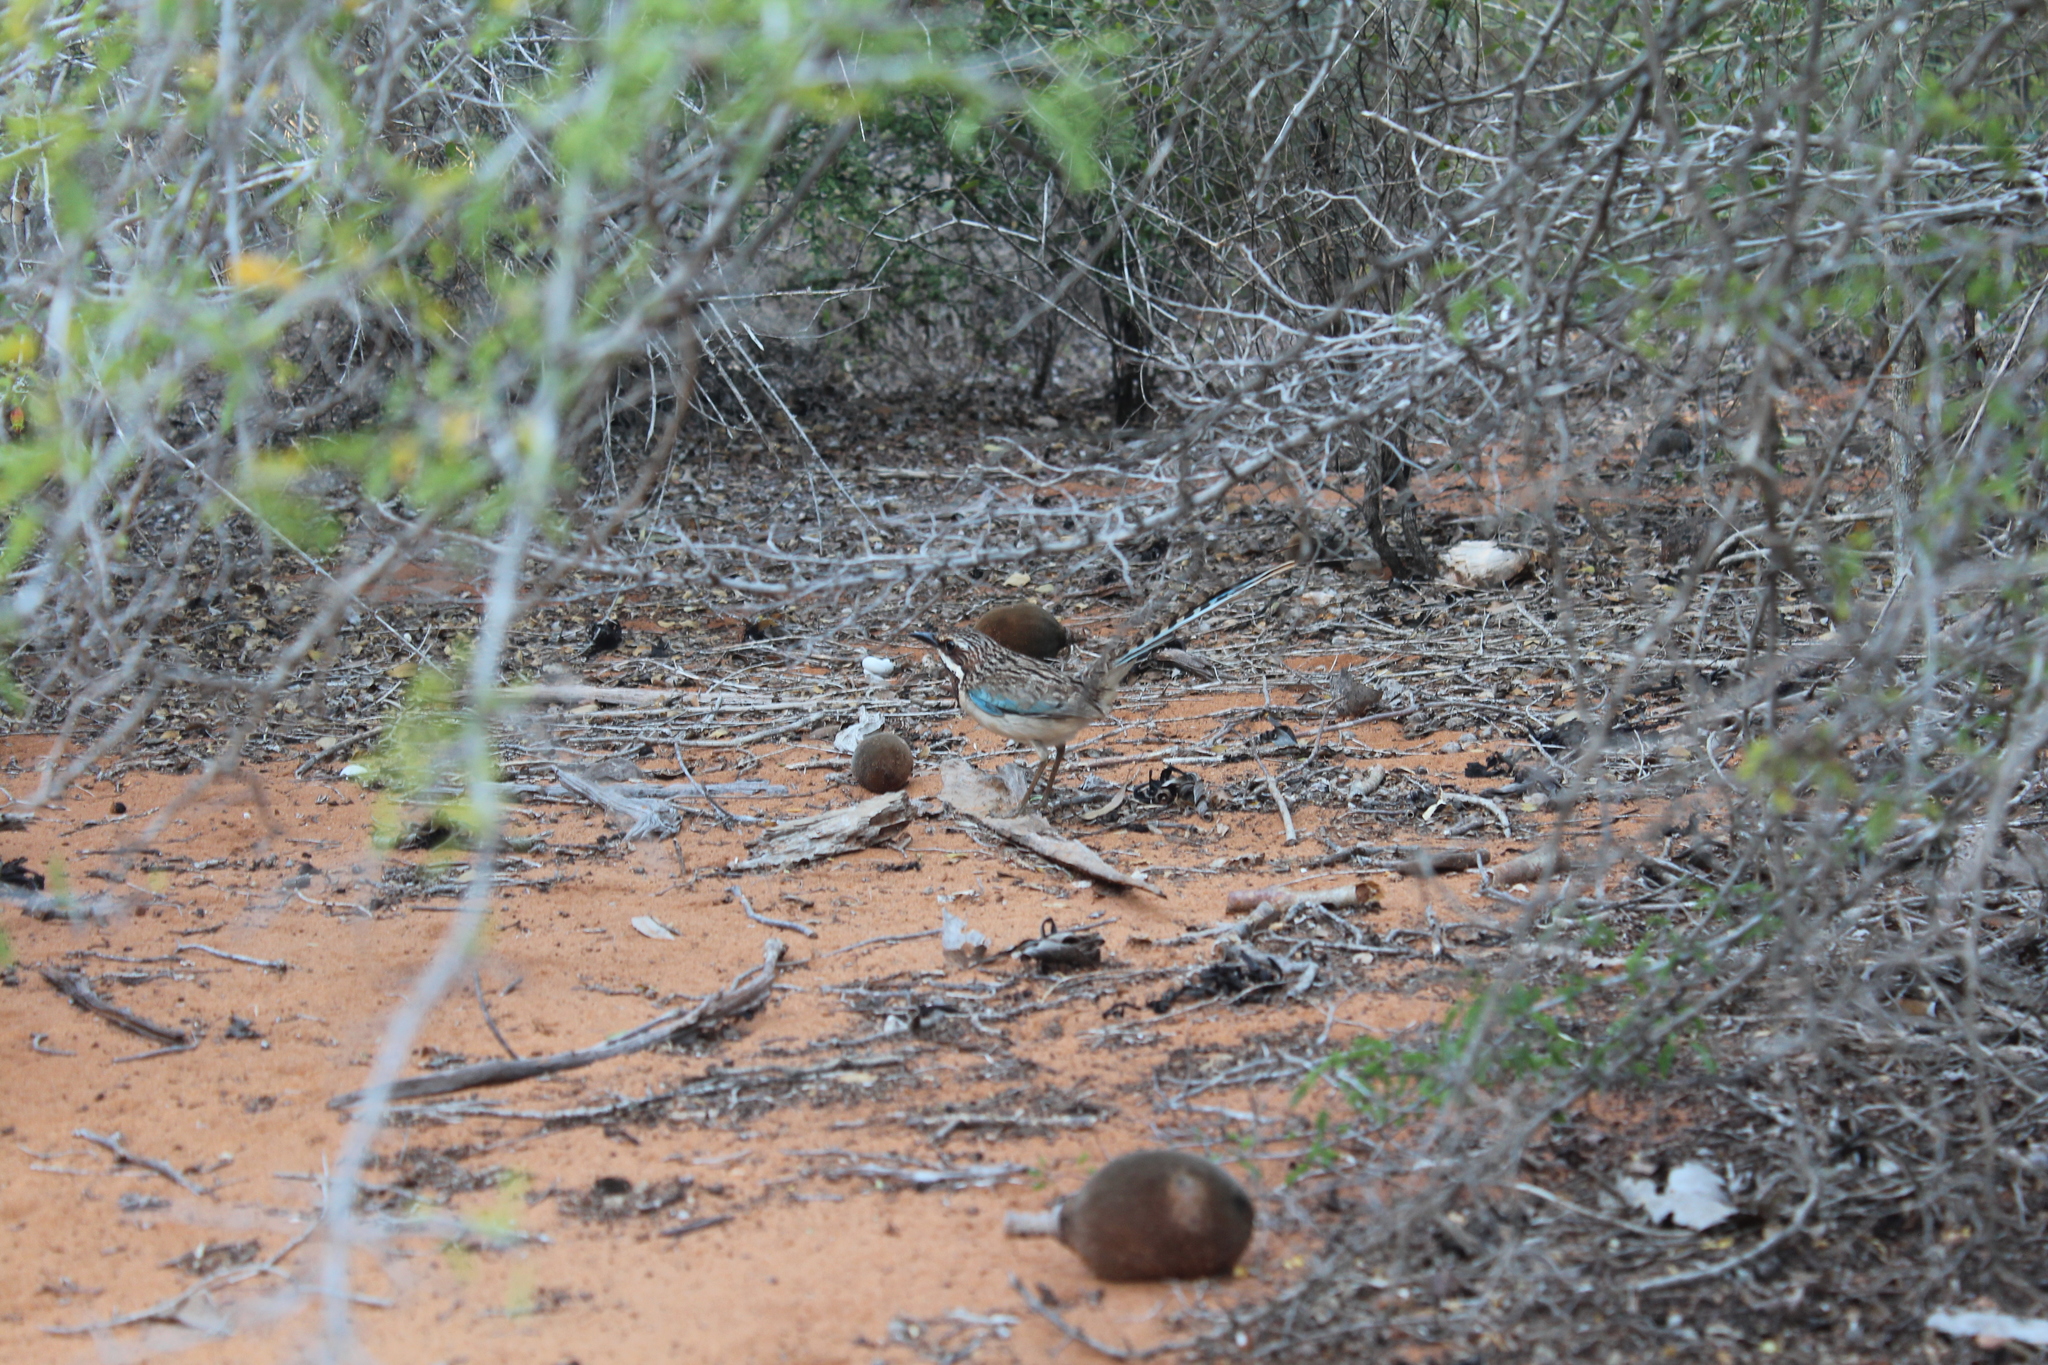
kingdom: Animalia
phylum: Chordata
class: Aves
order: Coraciiformes
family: Brachypteraciidae
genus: Uratelornis
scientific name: Uratelornis chimaera
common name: Long-tailed ground roller
